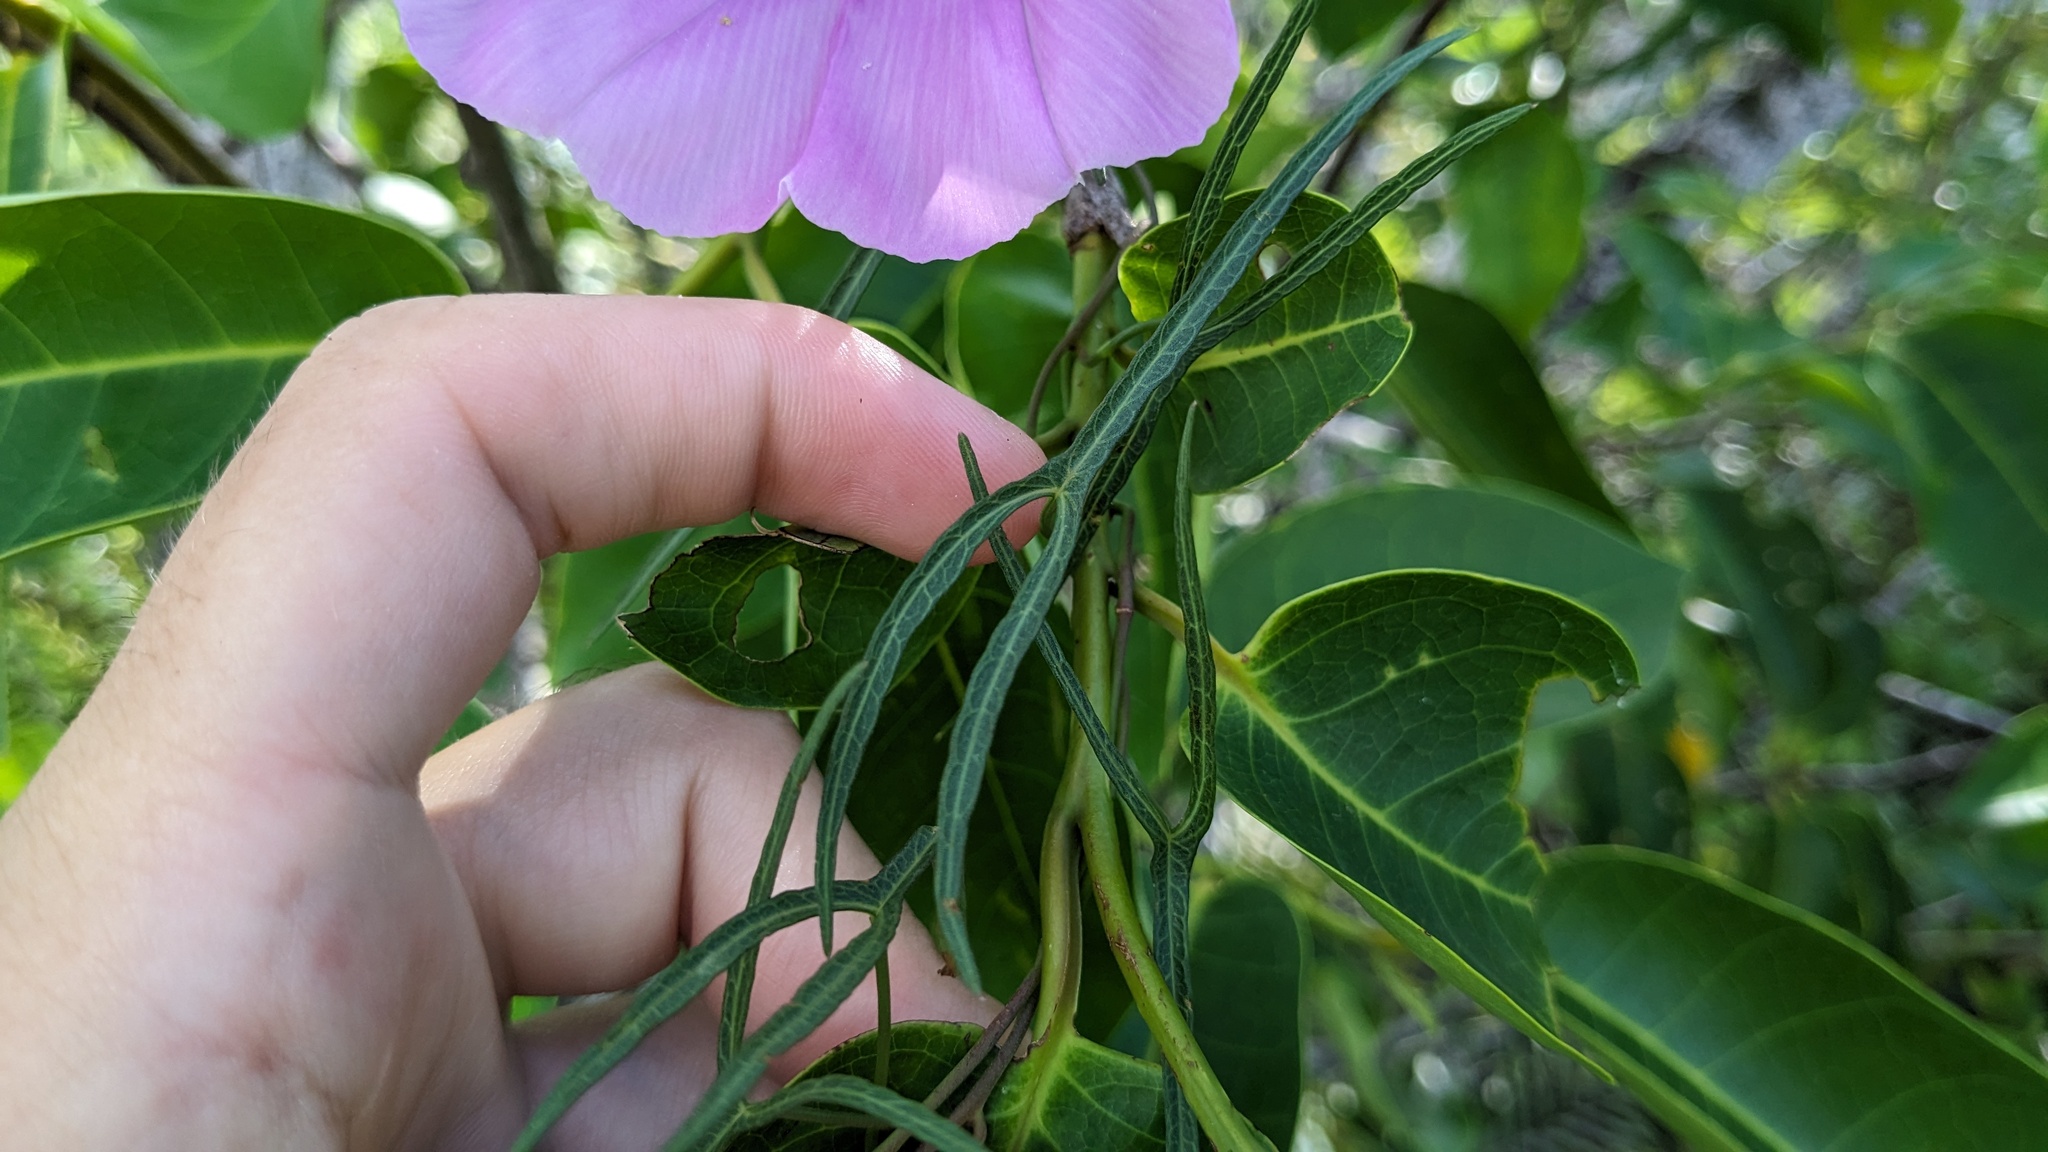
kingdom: Plantae
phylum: Tracheophyta
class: Magnoliopsida
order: Solanales
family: Convolvulaceae
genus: Ipomoea
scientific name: Ipomoea sagittata
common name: Saltmarsh morning glory
